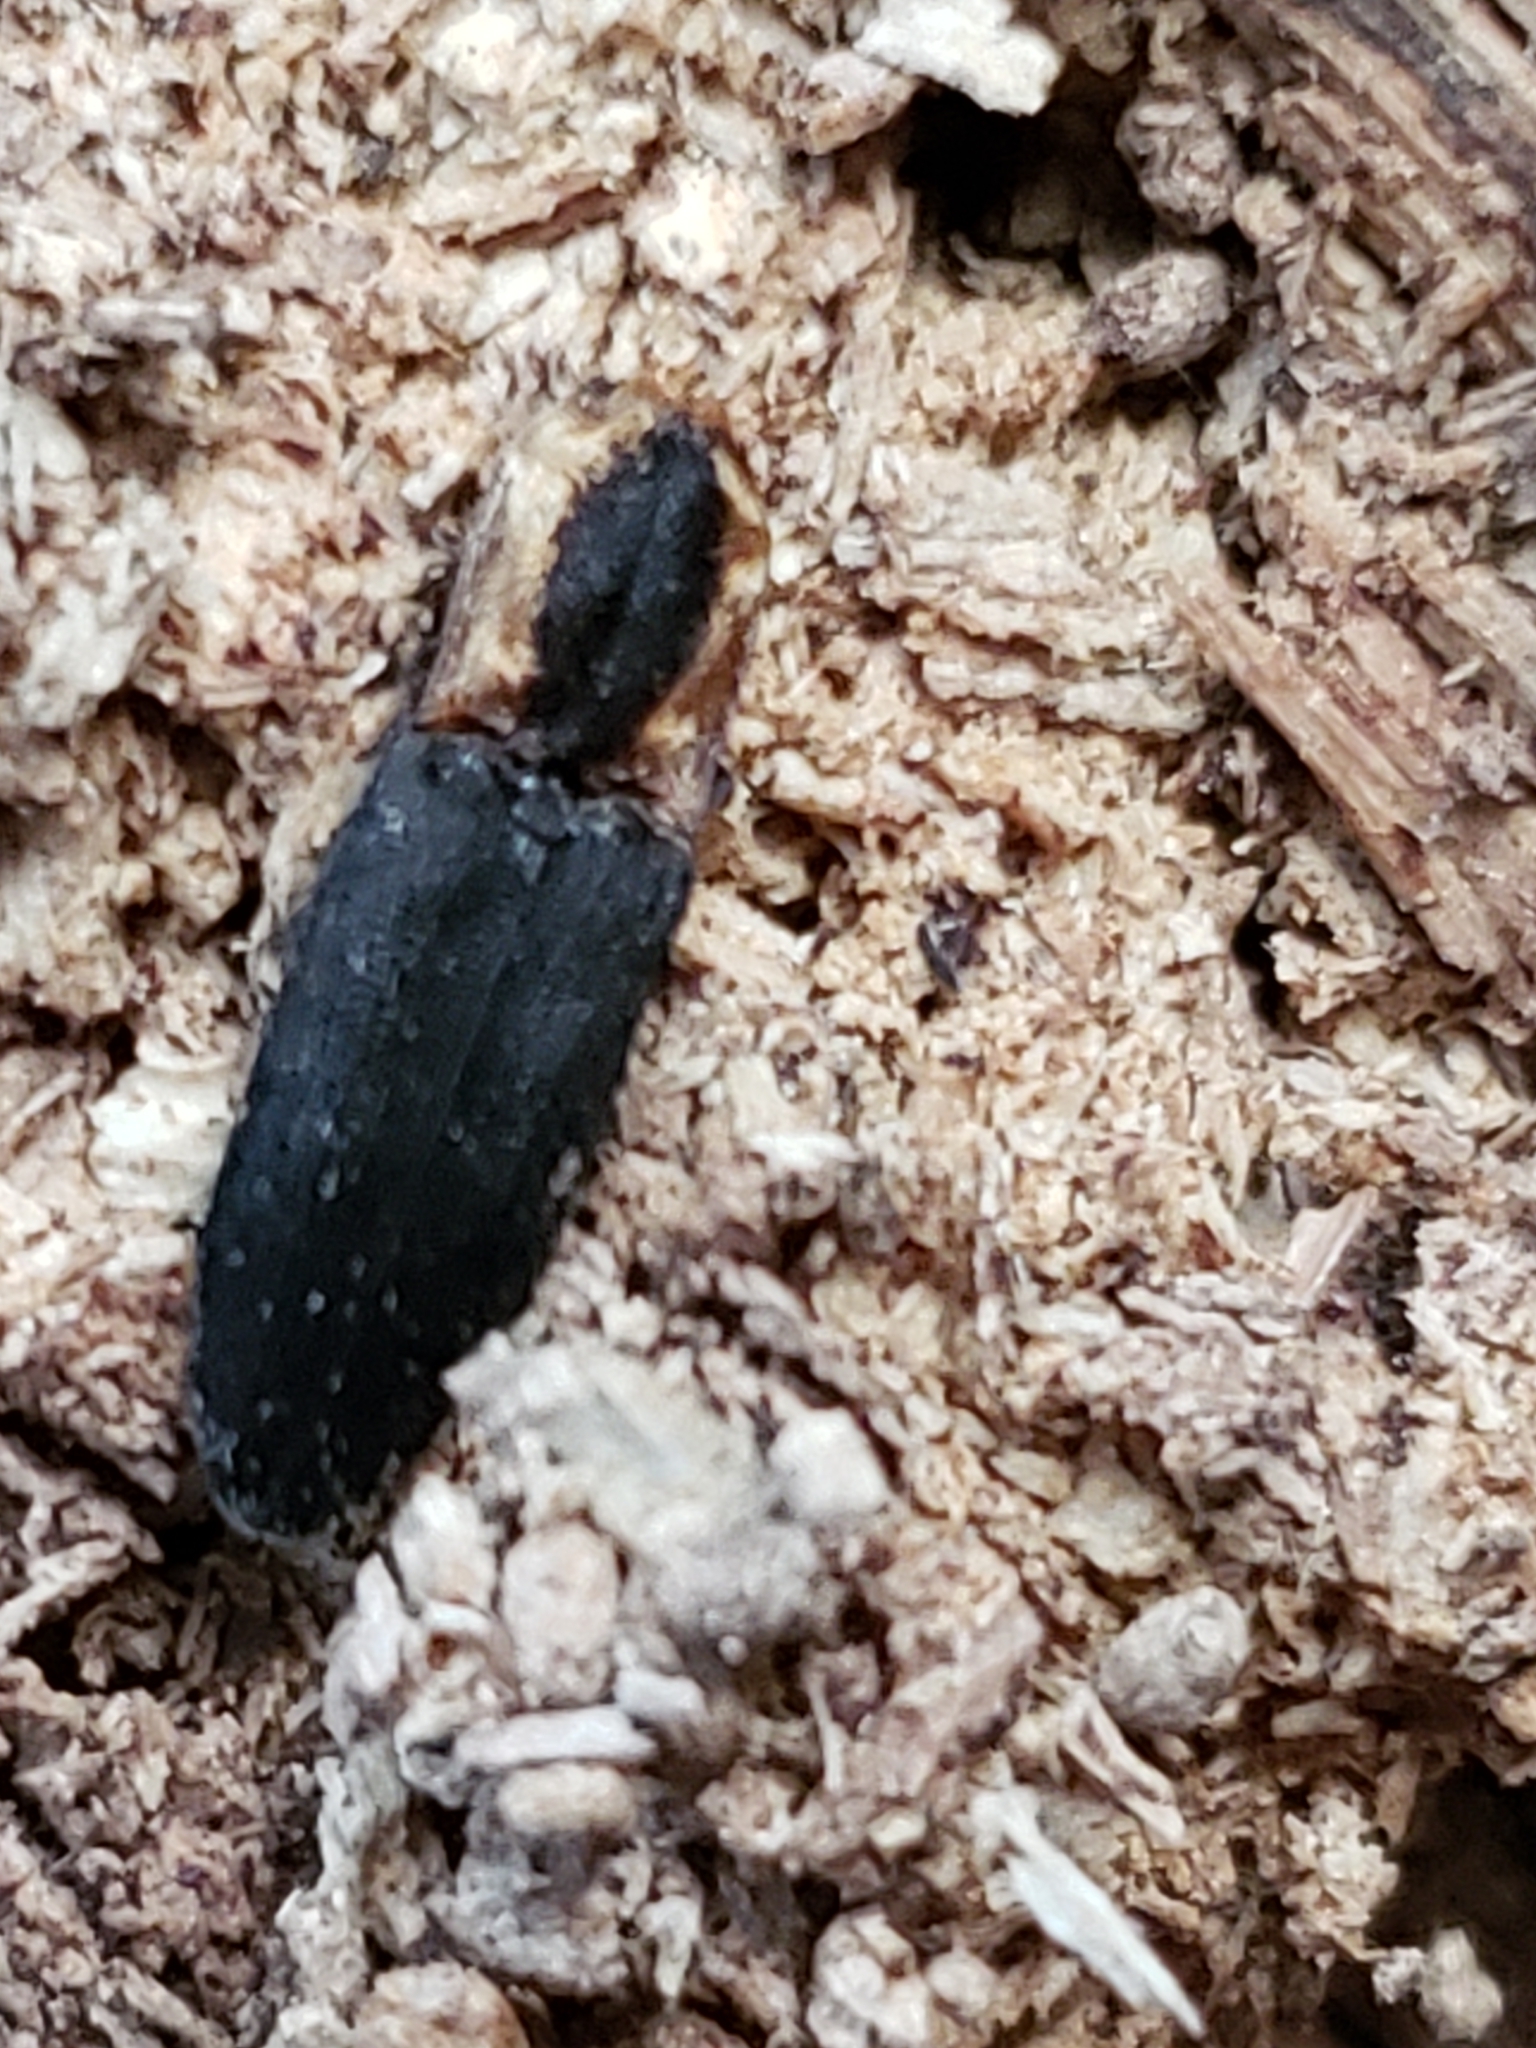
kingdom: Animalia
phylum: Arthropoda
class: Insecta
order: Coleoptera
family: Elateridae
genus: Lacon
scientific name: Lacon discoideus
